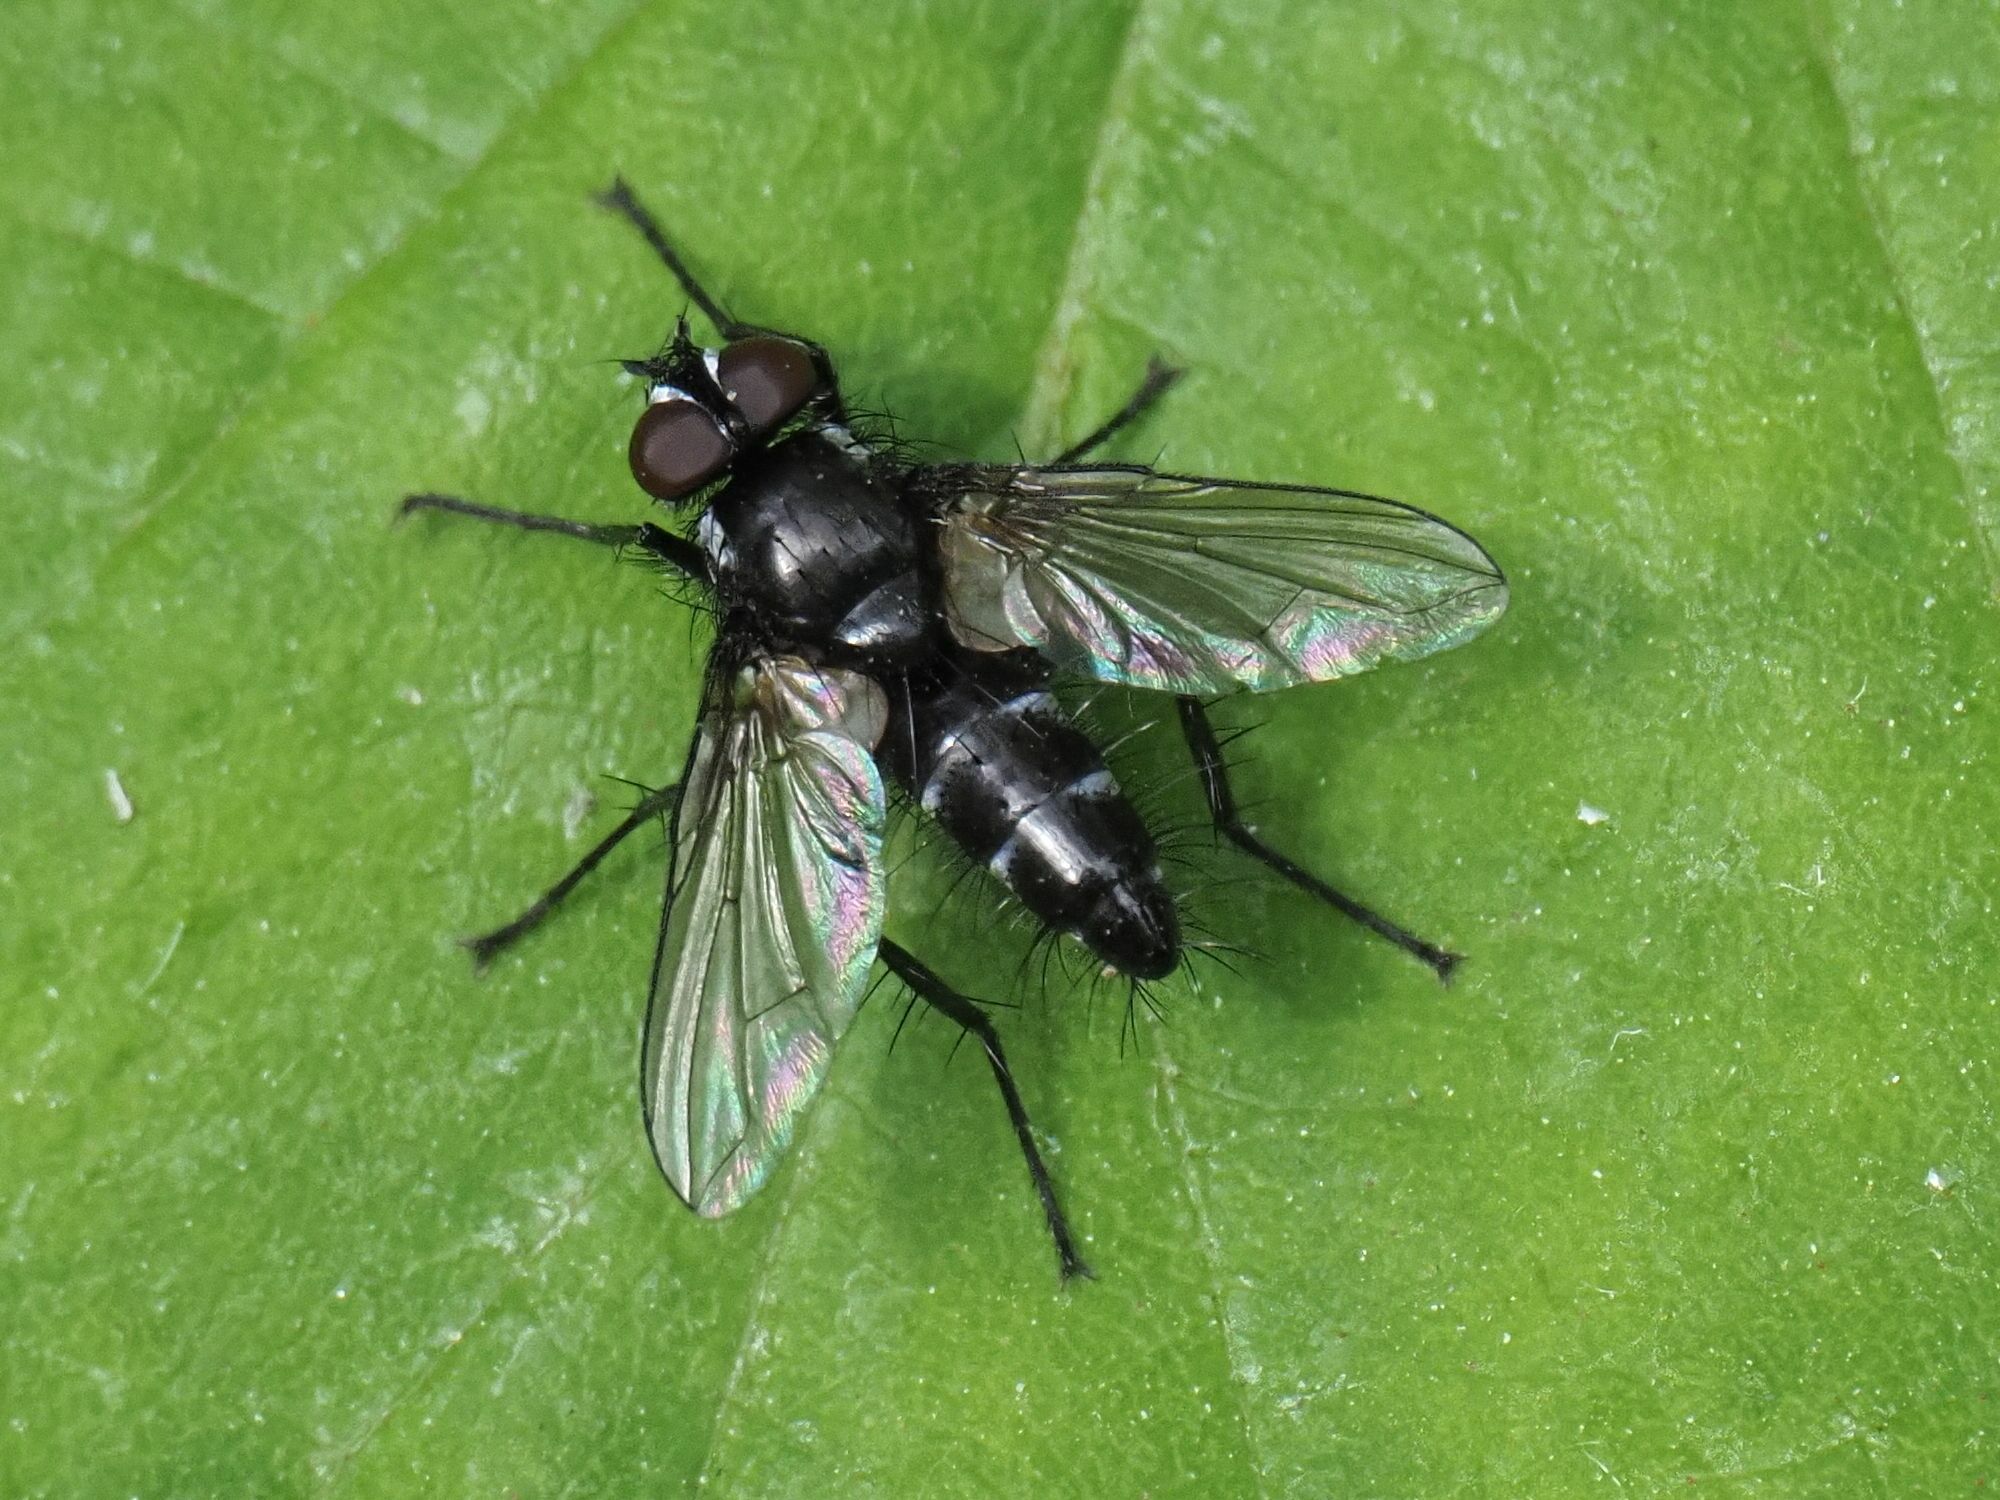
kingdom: Animalia
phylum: Arthropoda
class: Insecta
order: Diptera
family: Tachinidae
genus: Phyllomya
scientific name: Phyllomya volvulus
